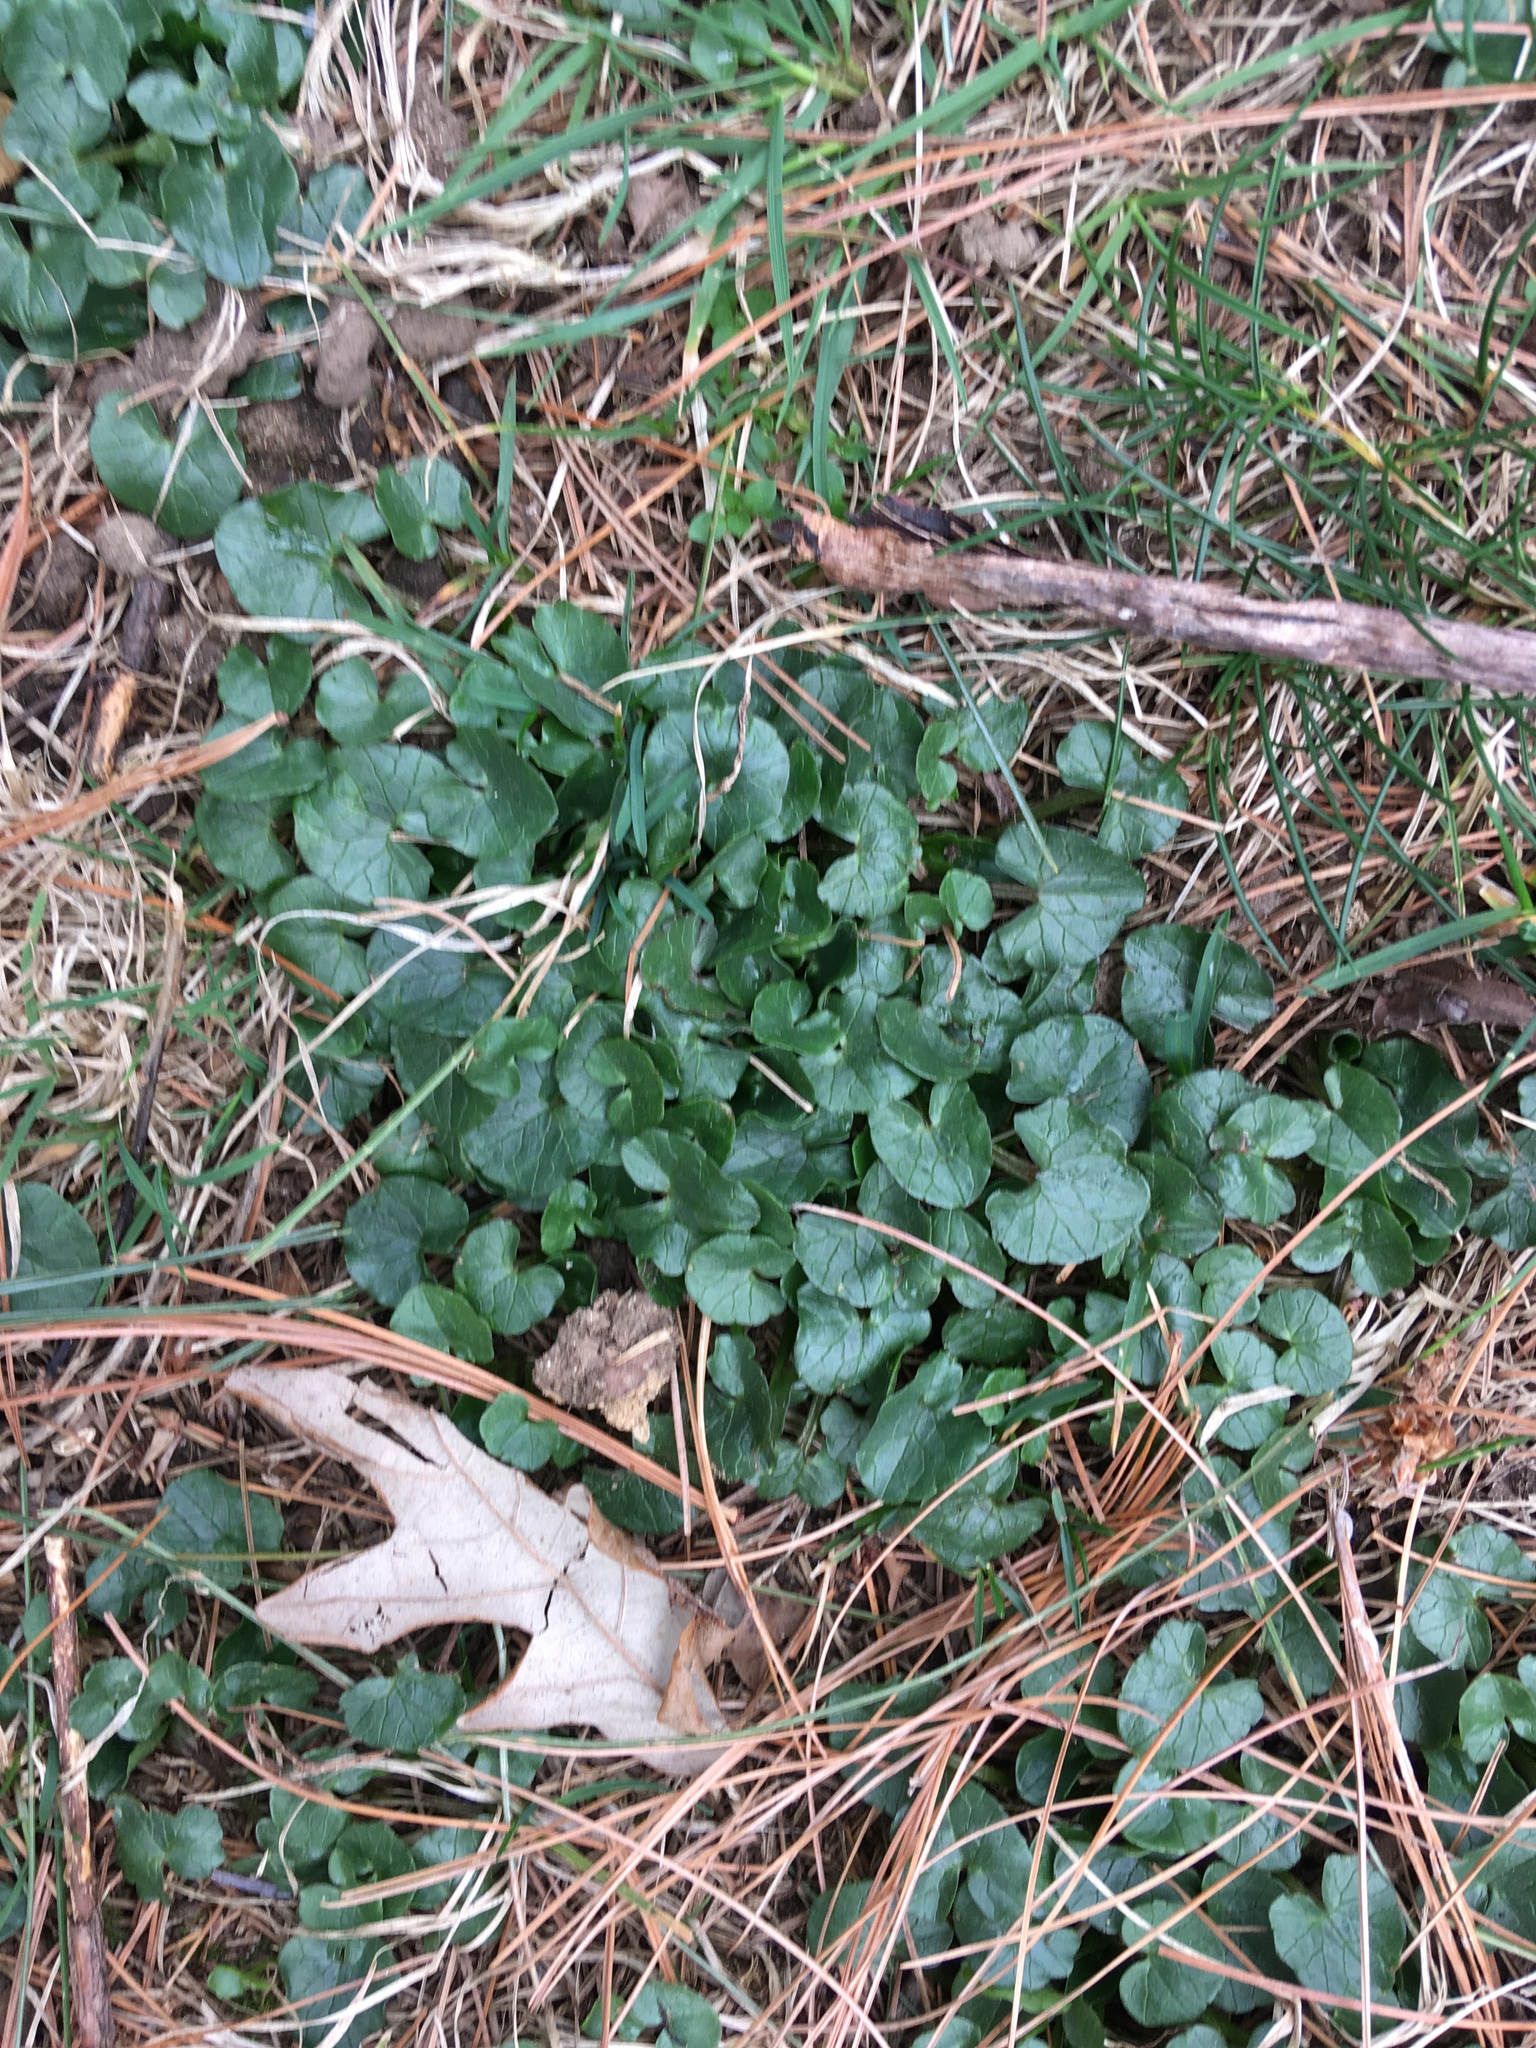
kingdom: Plantae
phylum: Tracheophyta
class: Magnoliopsida
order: Ranunculales
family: Ranunculaceae
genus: Ficaria
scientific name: Ficaria verna
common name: Lesser celandine
